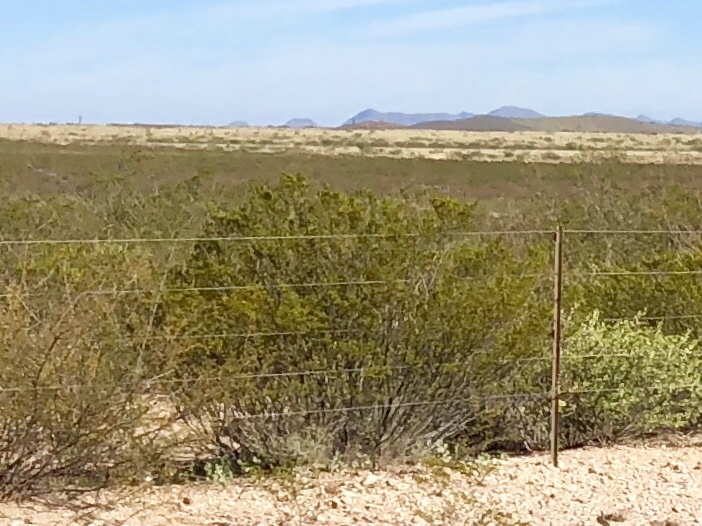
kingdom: Plantae
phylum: Tracheophyta
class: Magnoliopsida
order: Zygophyllales
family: Zygophyllaceae
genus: Larrea
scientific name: Larrea tridentata
